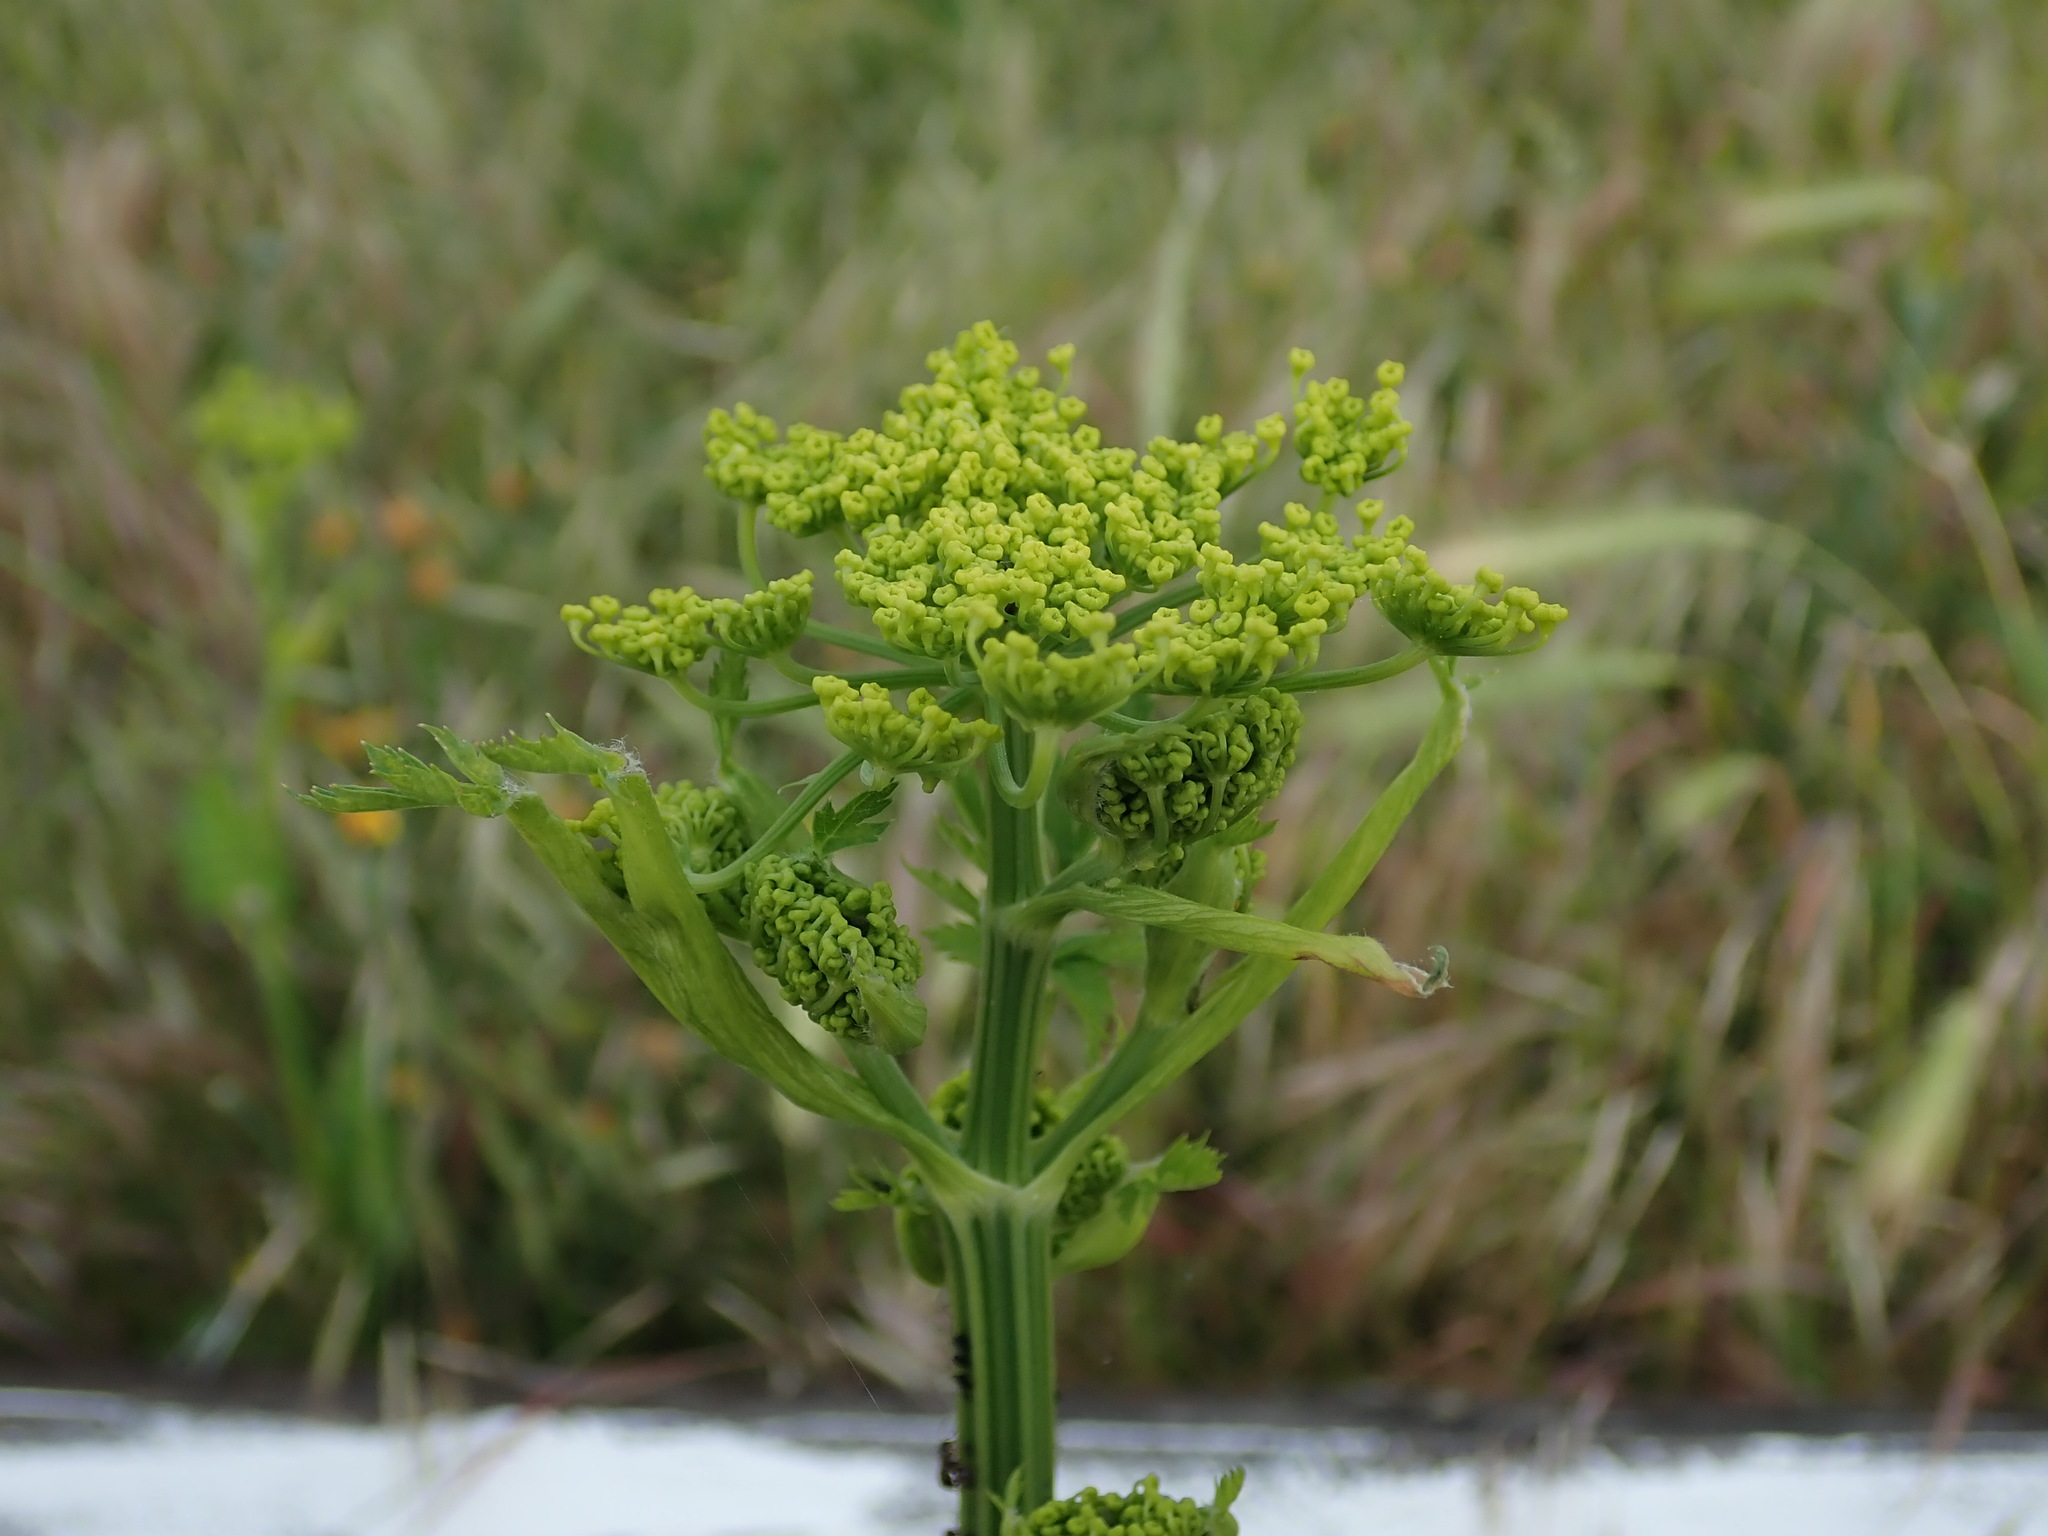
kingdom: Plantae
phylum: Tracheophyta
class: Magnoliopsida
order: Apiales
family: Apiaceae
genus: Pastinaca
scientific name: Pastinaca sativa
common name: Wild parsnip
